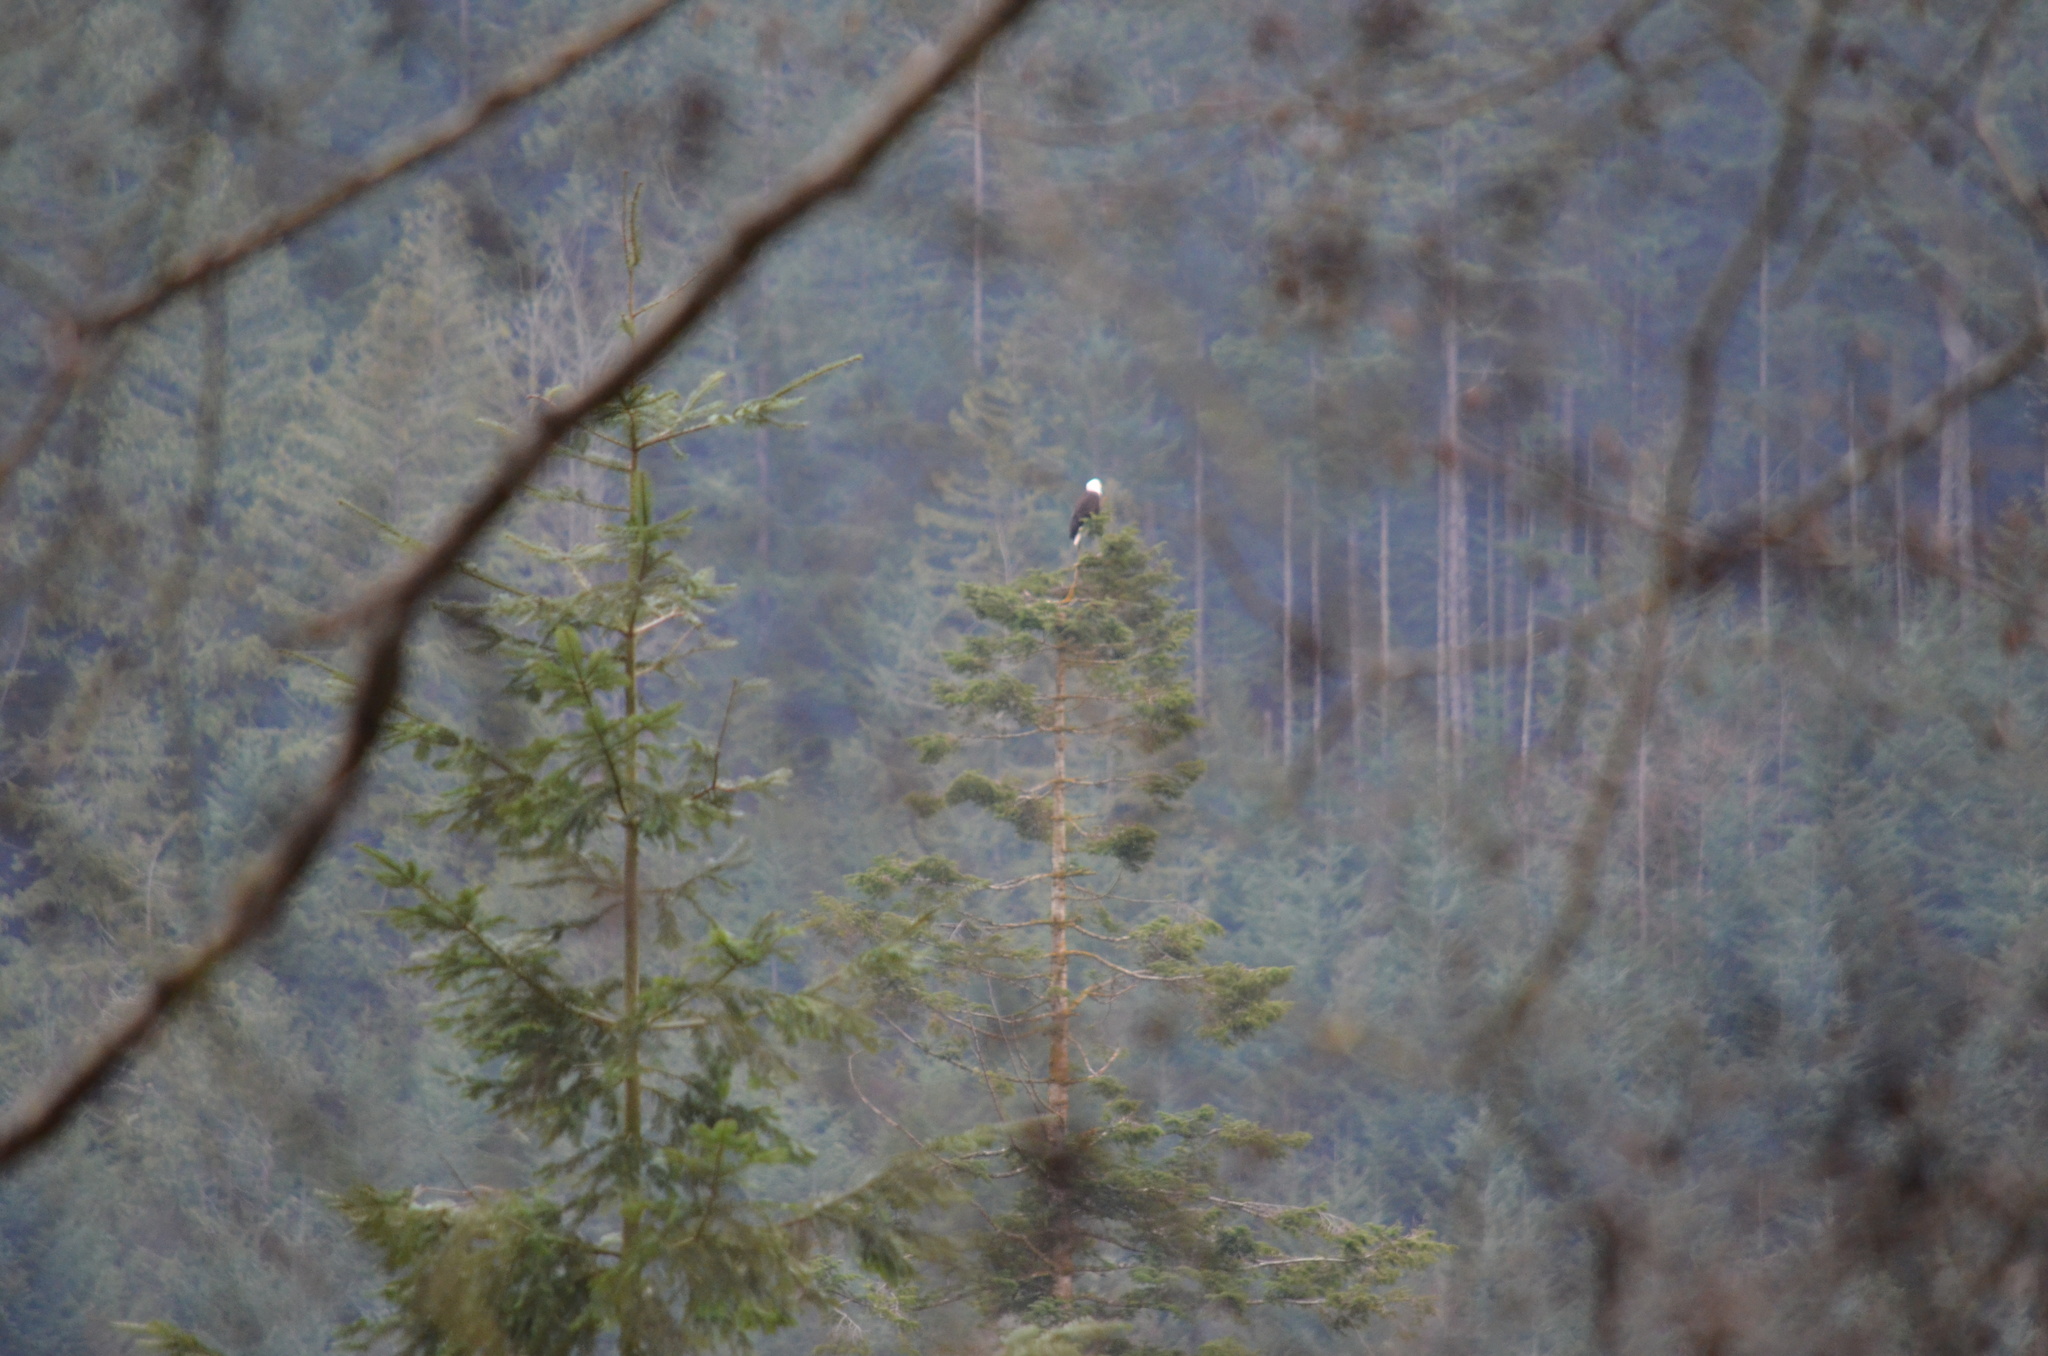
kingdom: Animalia
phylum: Chordata
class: Aves
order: Accipitriformes
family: Accipitridae
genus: Haliaeetus
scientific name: Haliaeetus leucocephalus
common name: Bald eagle
